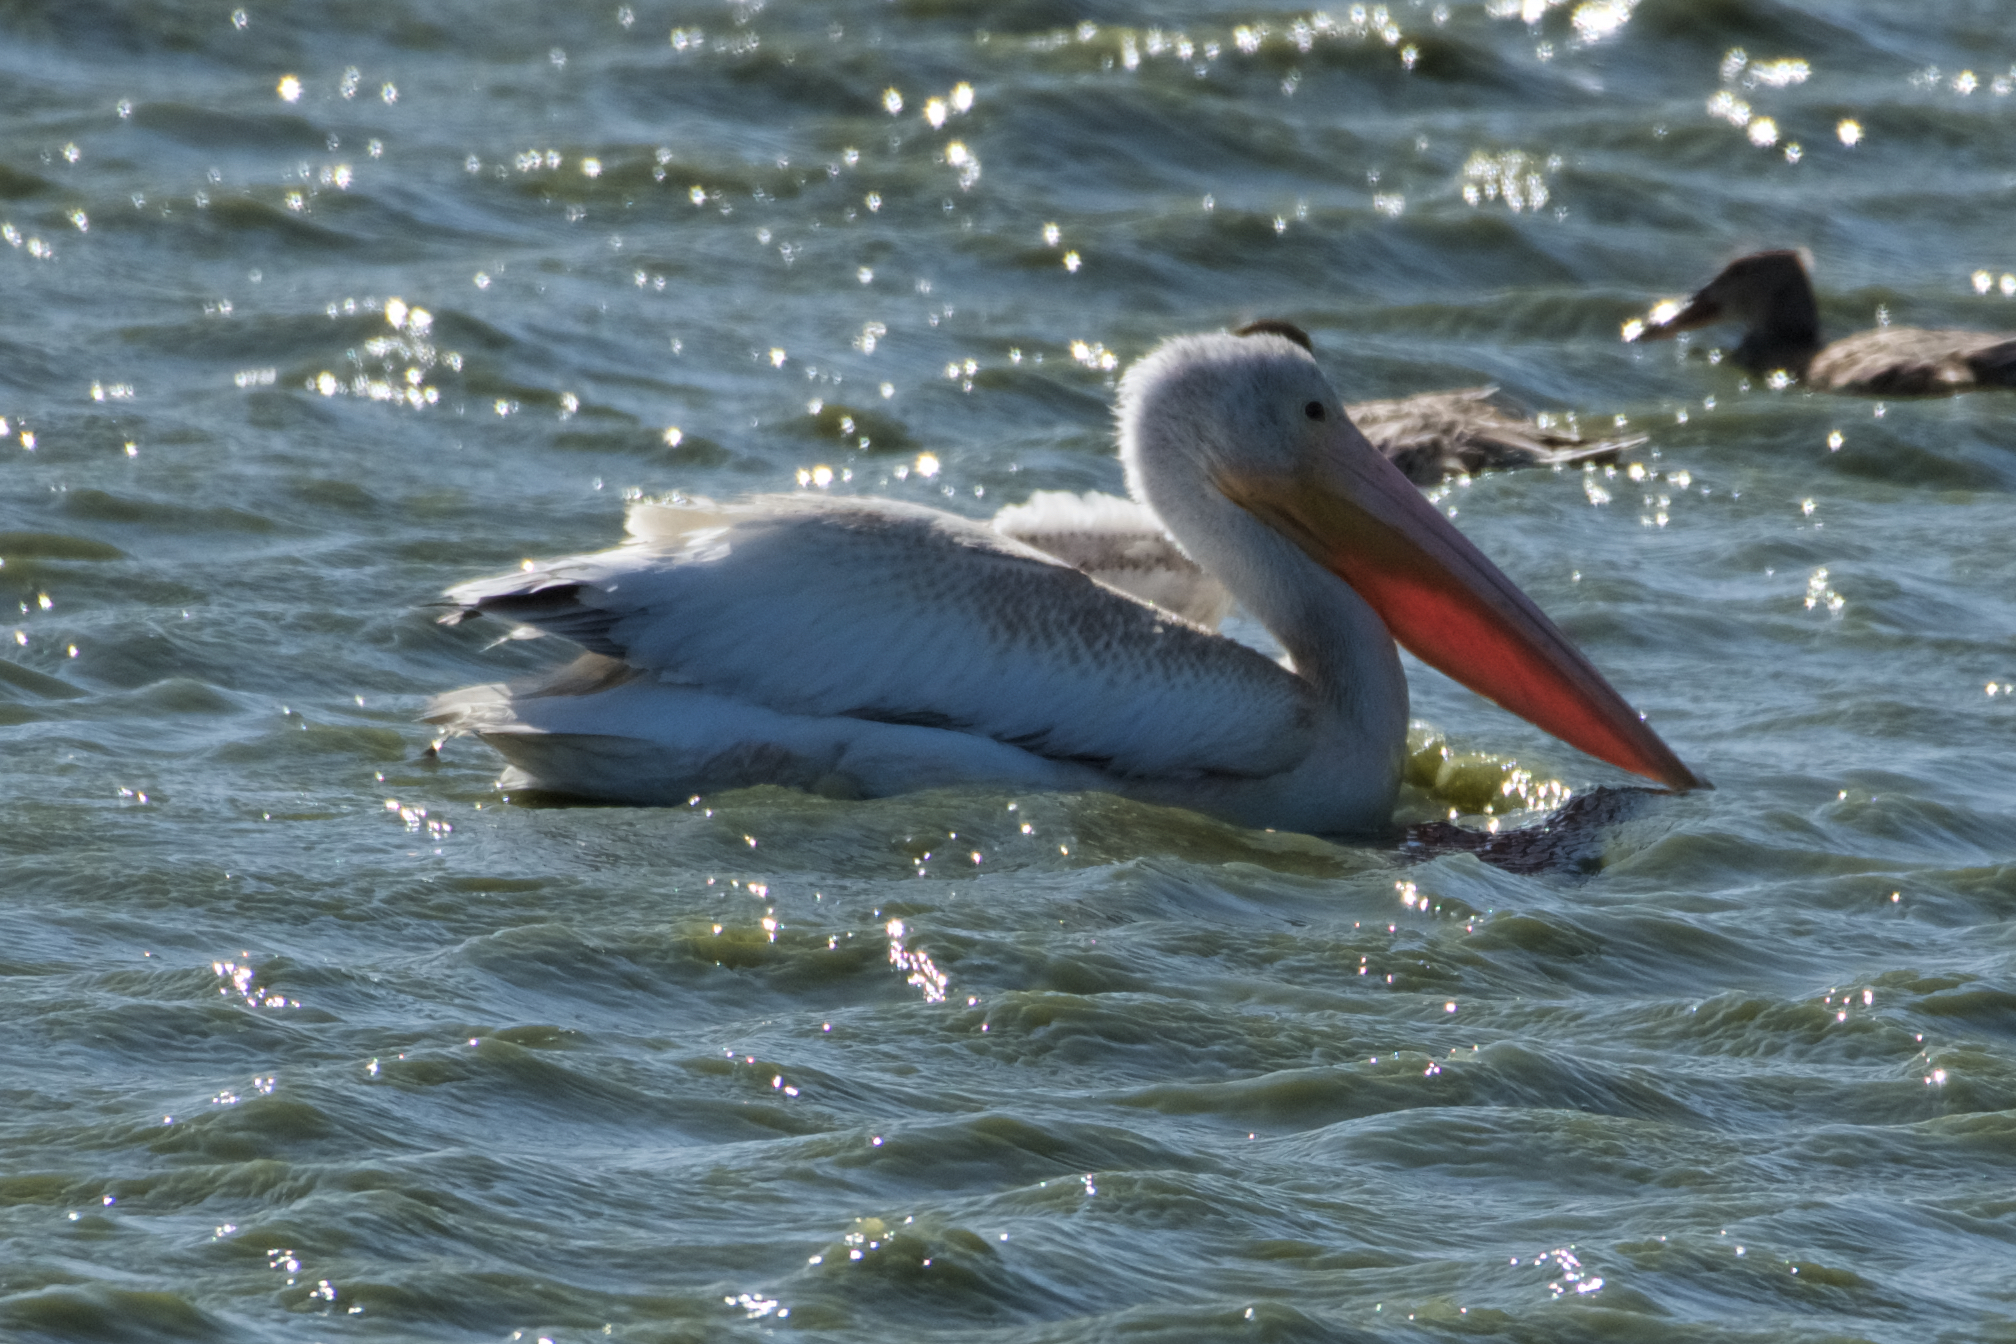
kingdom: Animalia
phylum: Chordata
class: Aves
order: Pelecaniformes
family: Pelecanidae
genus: Pelecanus
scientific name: Pelecanus erythrorhynchos
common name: American white pelican
